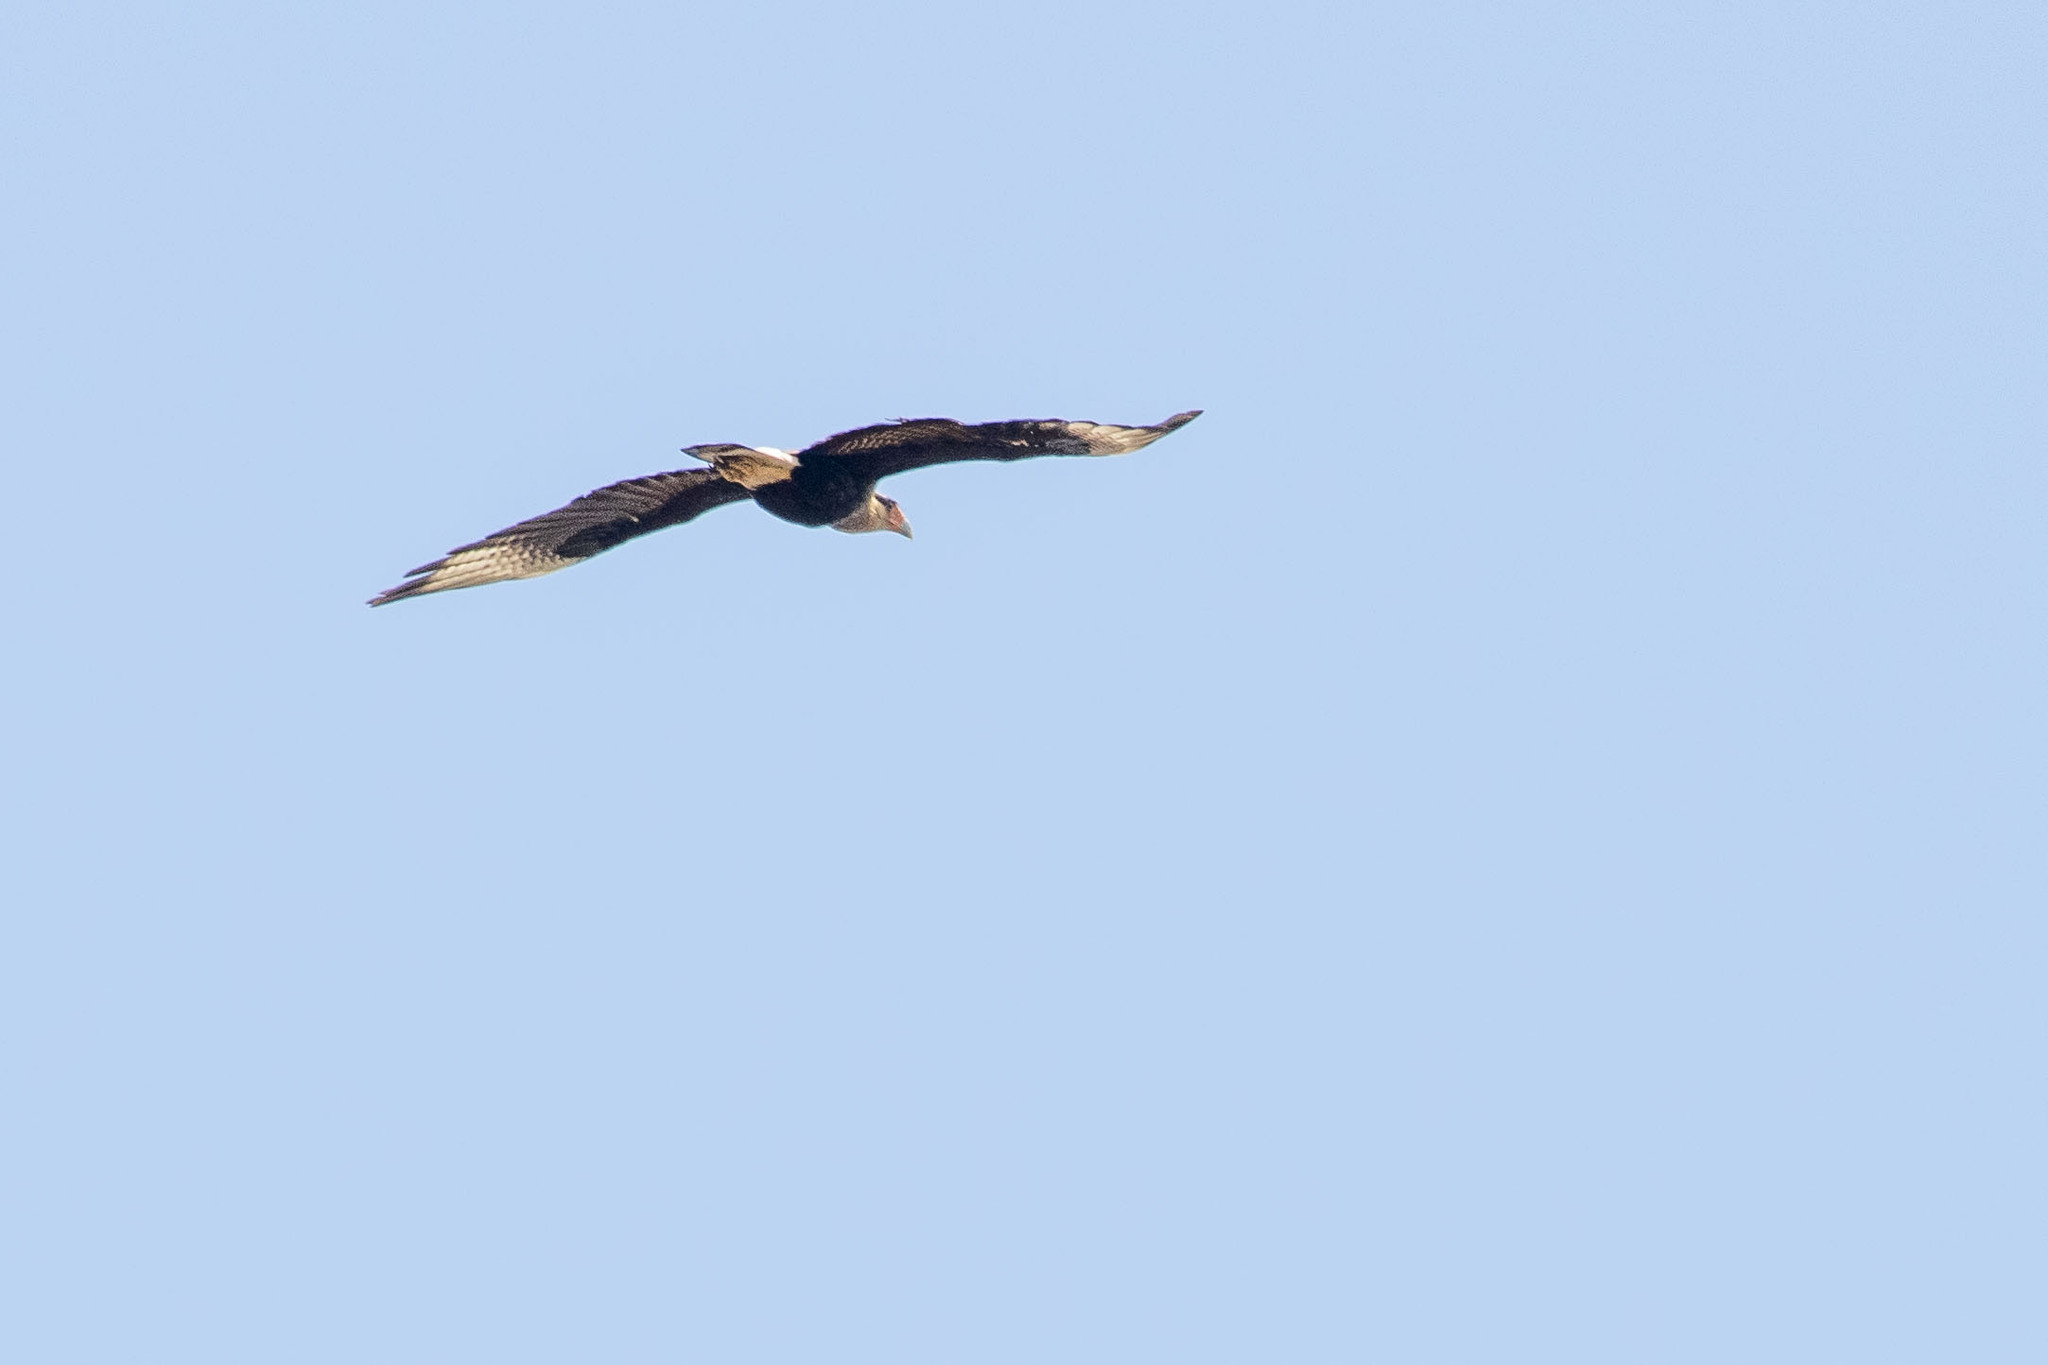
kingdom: Animalia
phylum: Chordata
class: Aves
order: Falconiformes
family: Falconidae
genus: Caracara
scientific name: Caracara plancus
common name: Southern caracara
